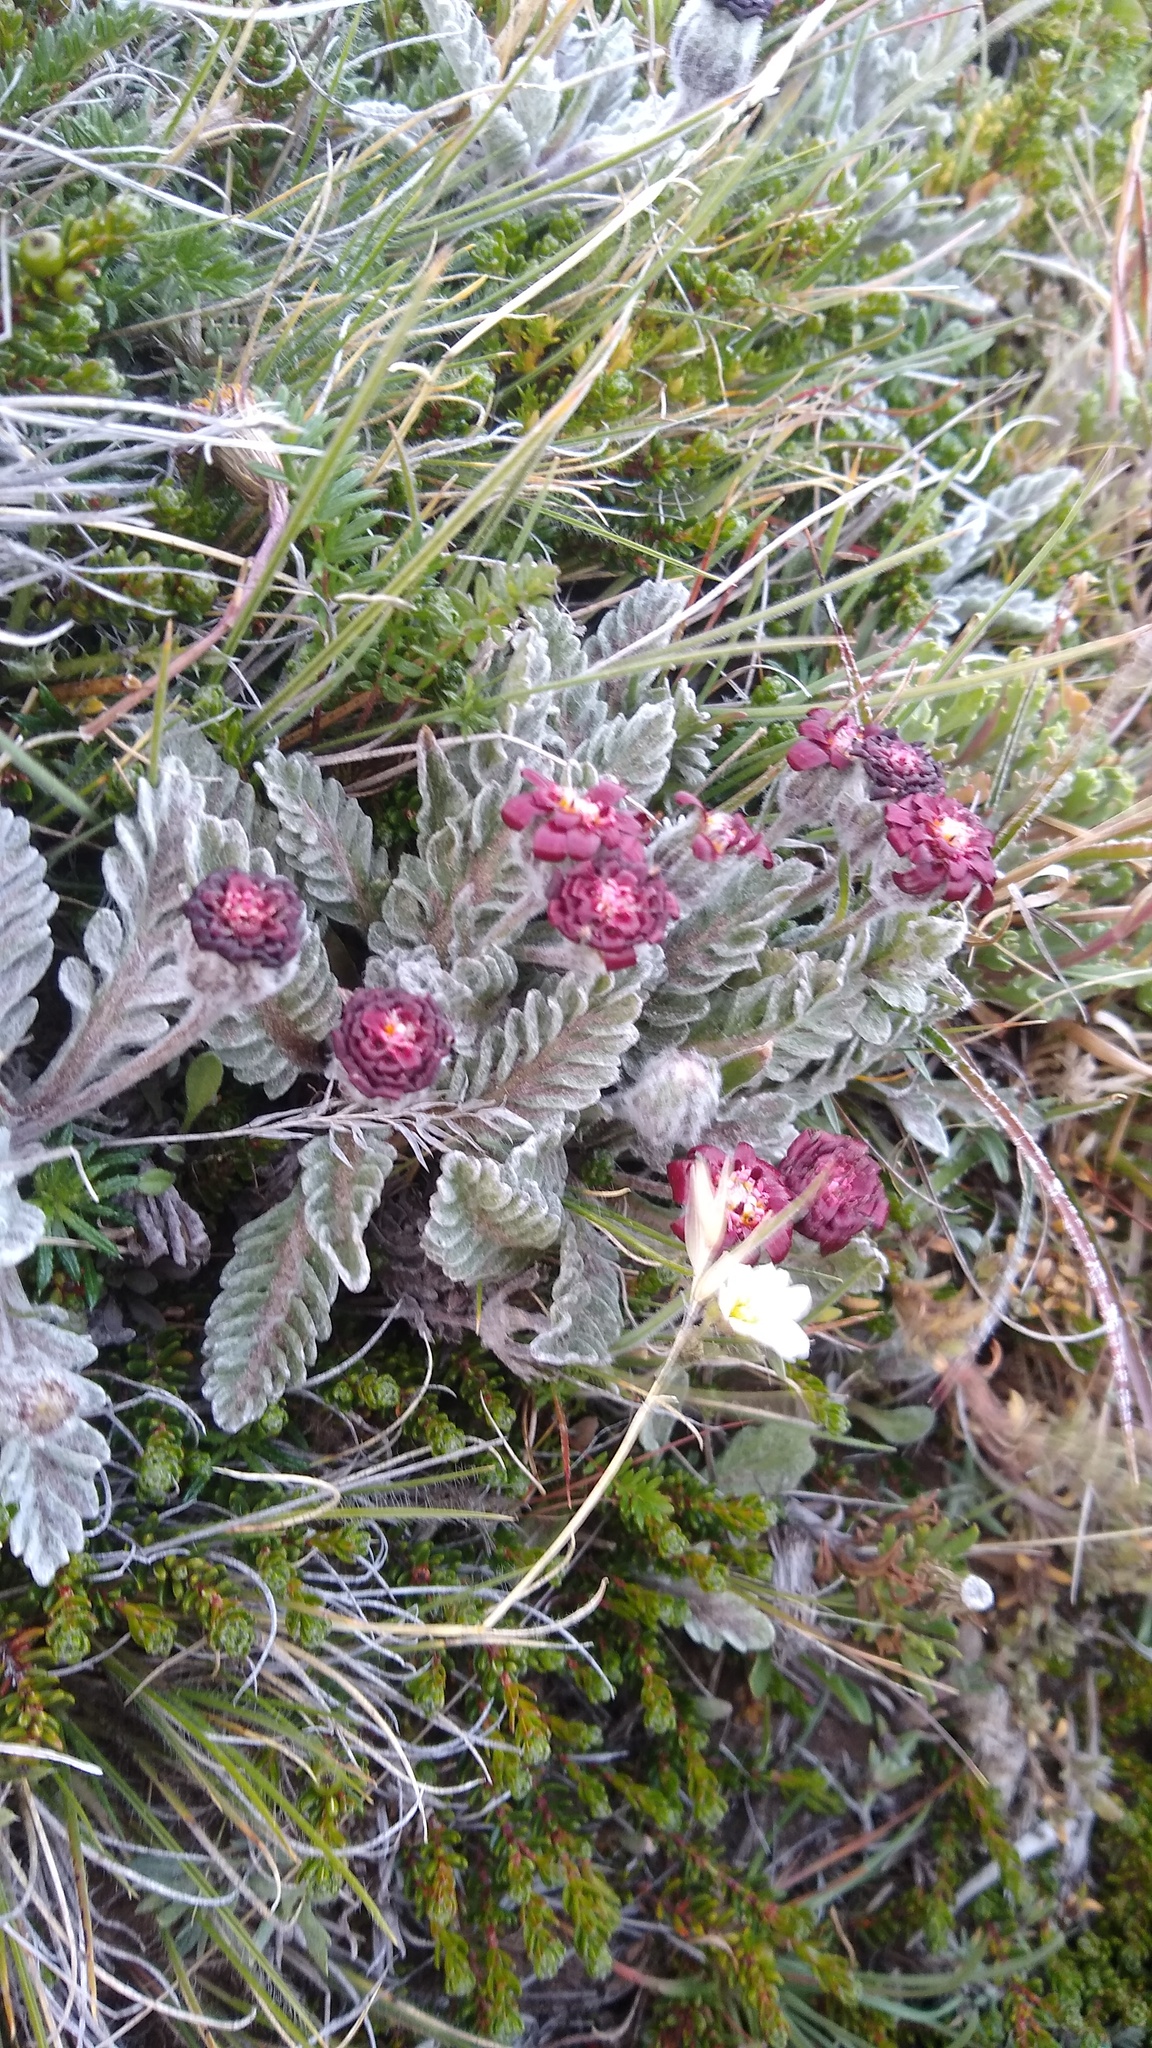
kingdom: Plantae
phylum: Tracheophyta
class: Magnoliopsida
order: Asterales
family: Asteraceae
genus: Leucheria
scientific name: Leucheria purpurea
